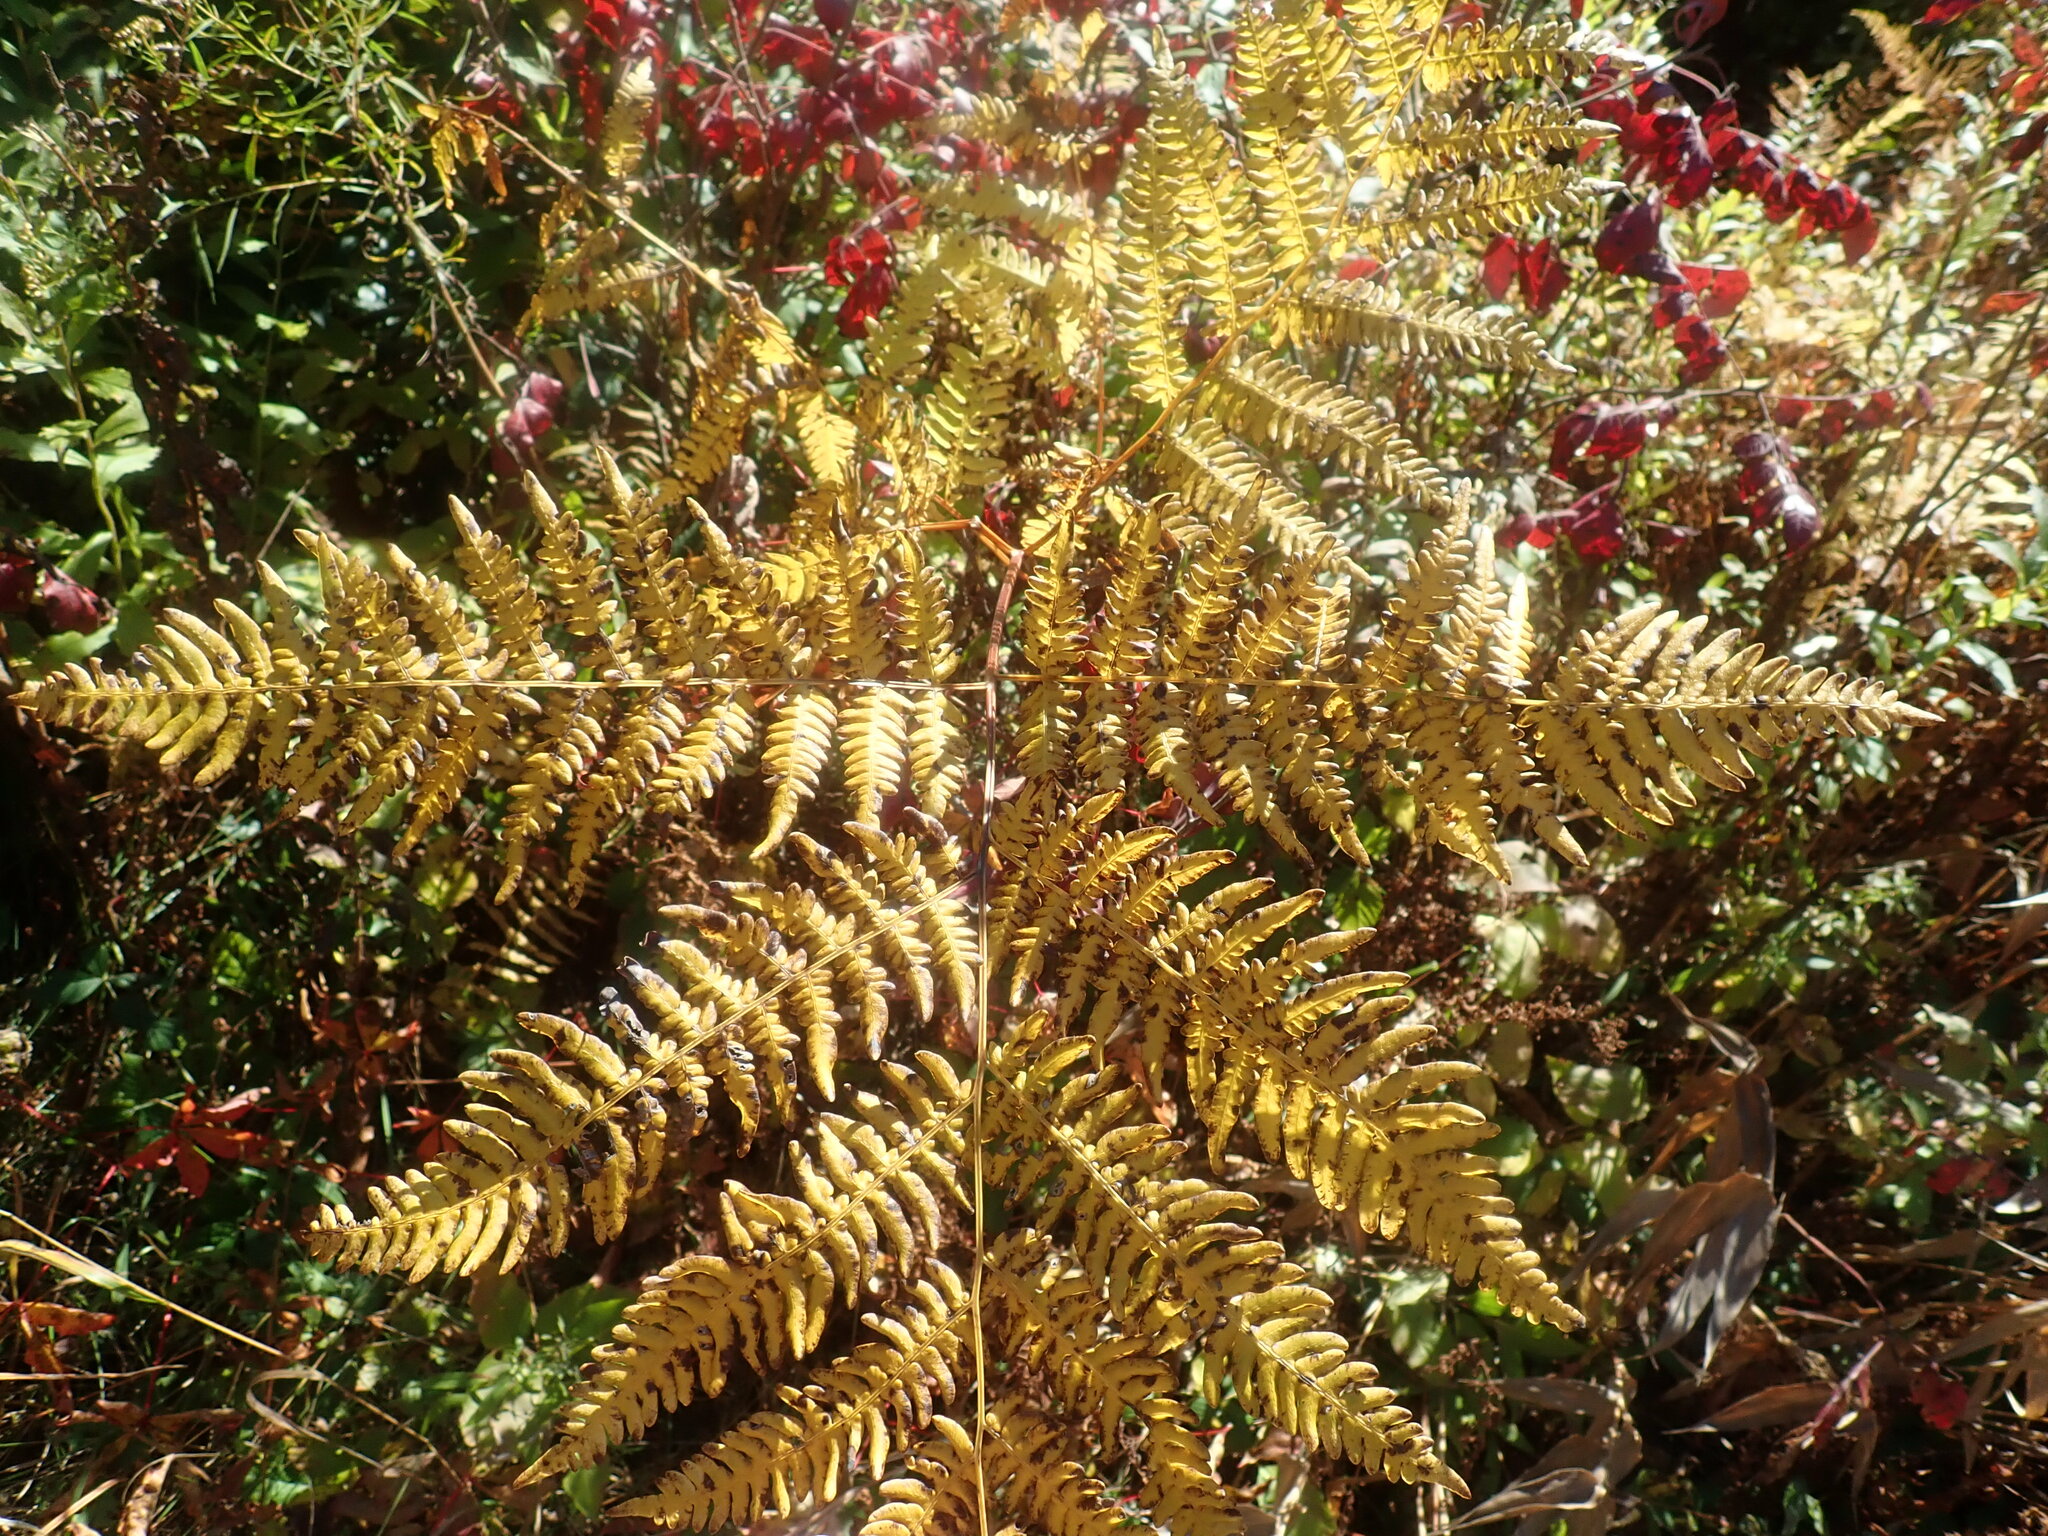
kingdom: Plantae
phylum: Tracheophyta
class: Polypodiopsida
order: Polypodiales
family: Dennstaedtiaceae
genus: Pteridium
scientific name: Pteridium aquilinum
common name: Bracken
